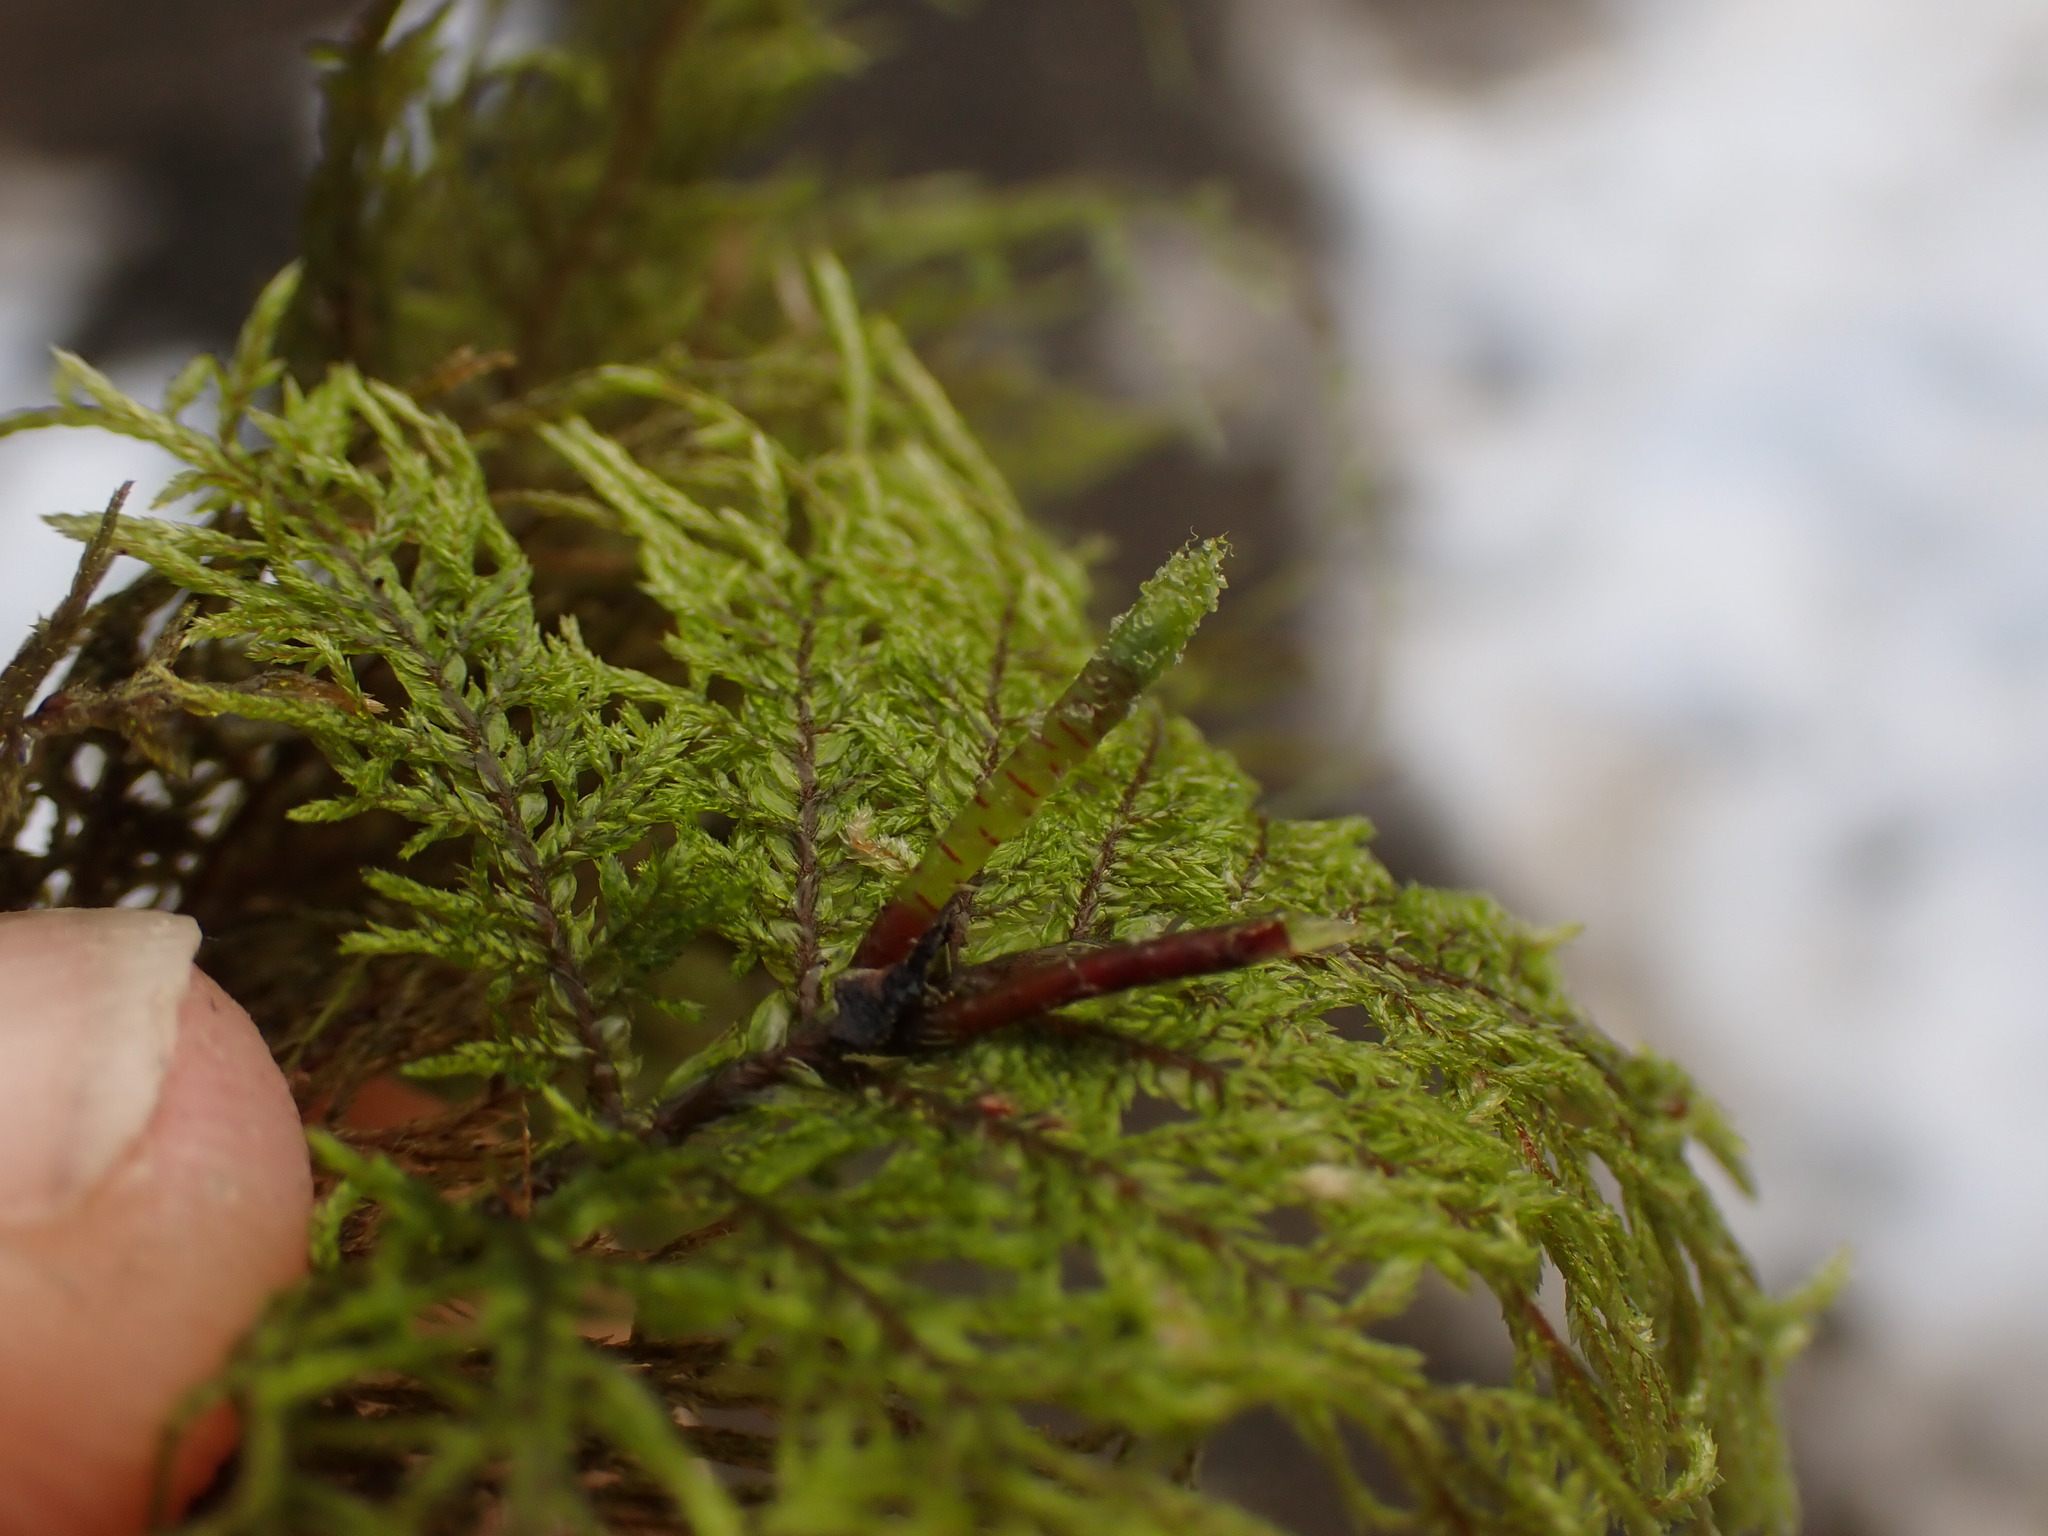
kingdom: Plantae
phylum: Bryophyta
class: Bryopsida
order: Hypnales
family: Hylocomiaceae
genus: Hylocomium
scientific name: Hylocomium splendens
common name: Stairstep moss
